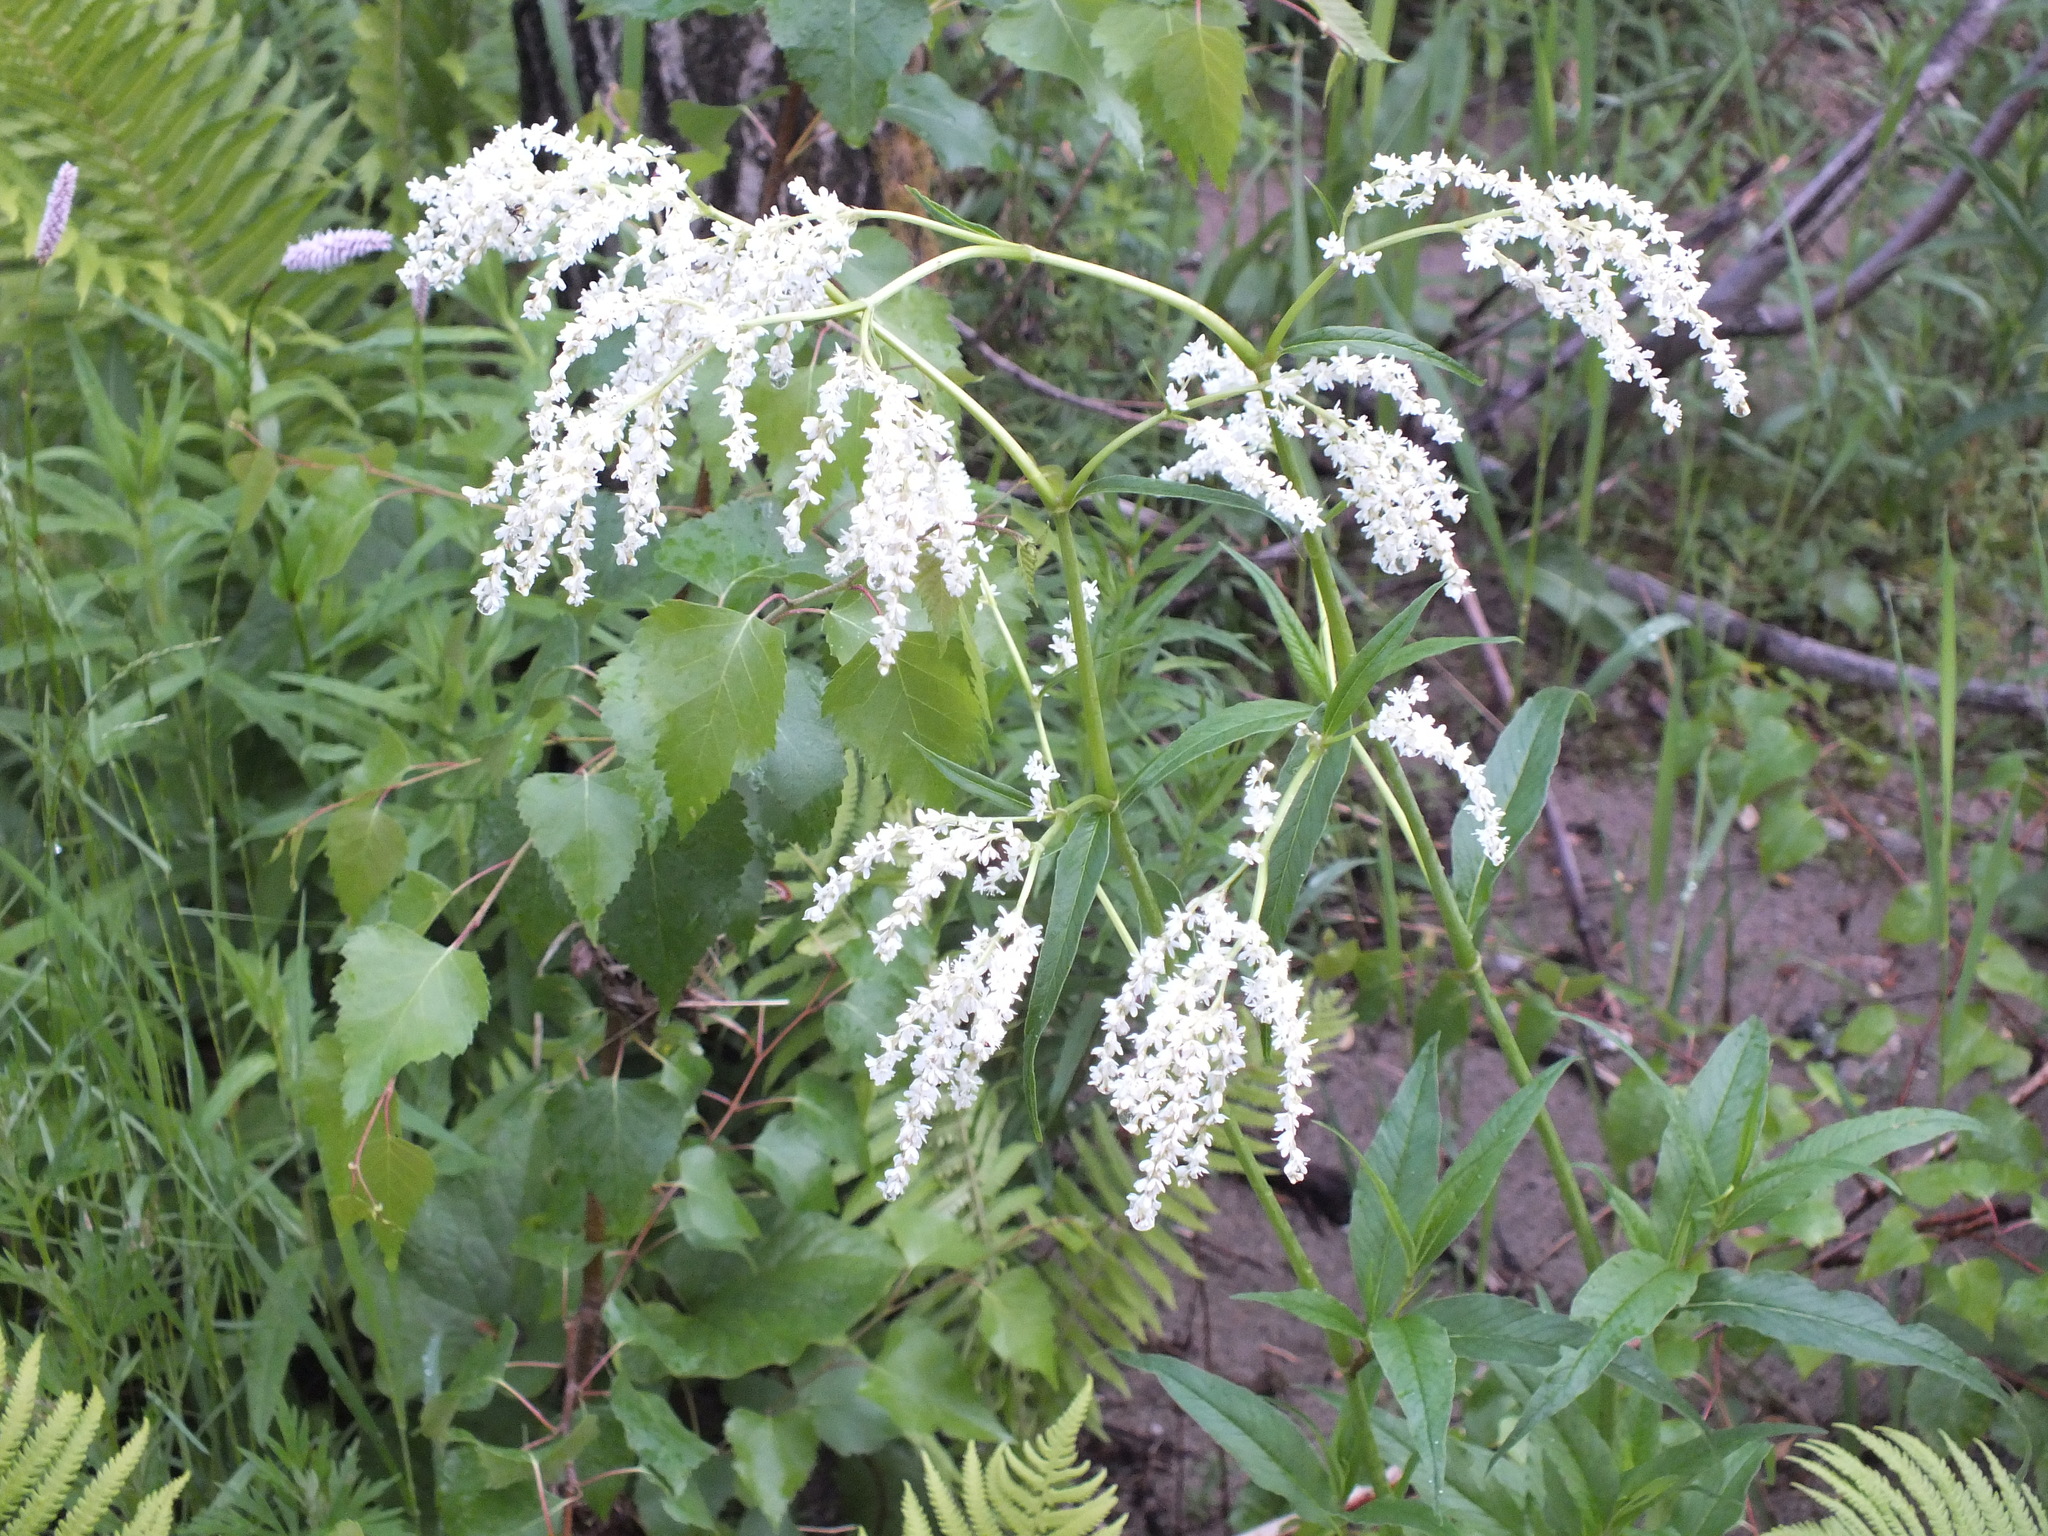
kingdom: Plantae
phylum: Tracheophyta
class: Magnoliopsida
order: Caryophyllales
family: Polygonaceae
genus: Koenigia
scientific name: Koenigia alpina
